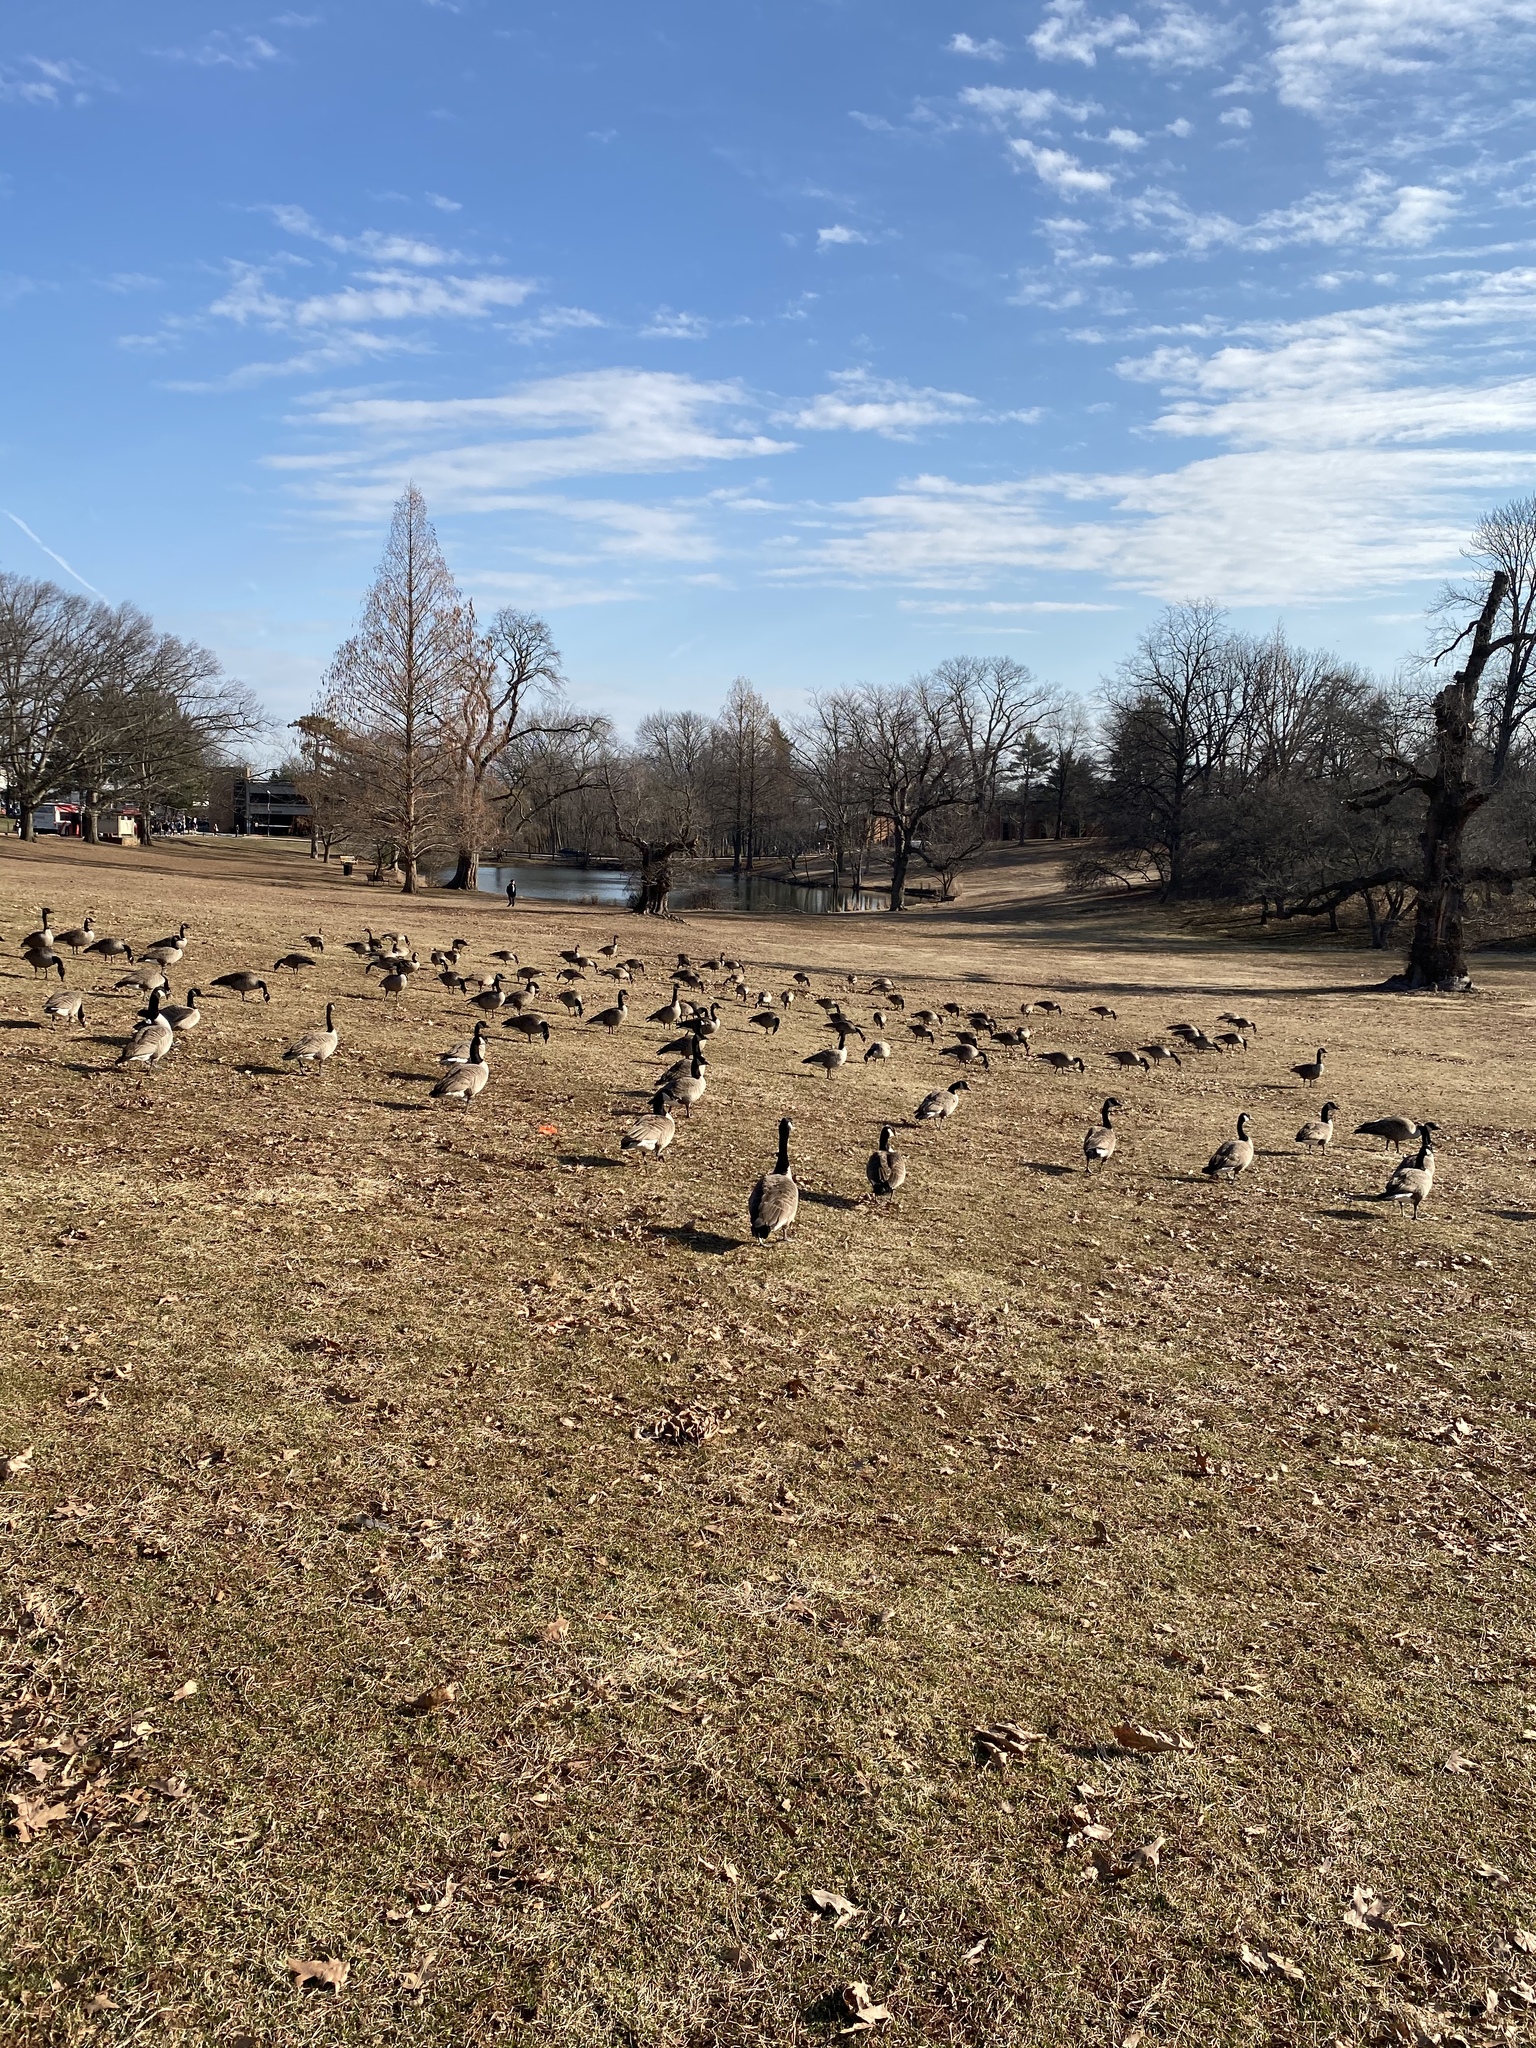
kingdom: Animalia
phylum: Chordata
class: Aves
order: Anseriformes
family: Anatidae
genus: Branta
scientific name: Branta canadensis
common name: Canada goose
